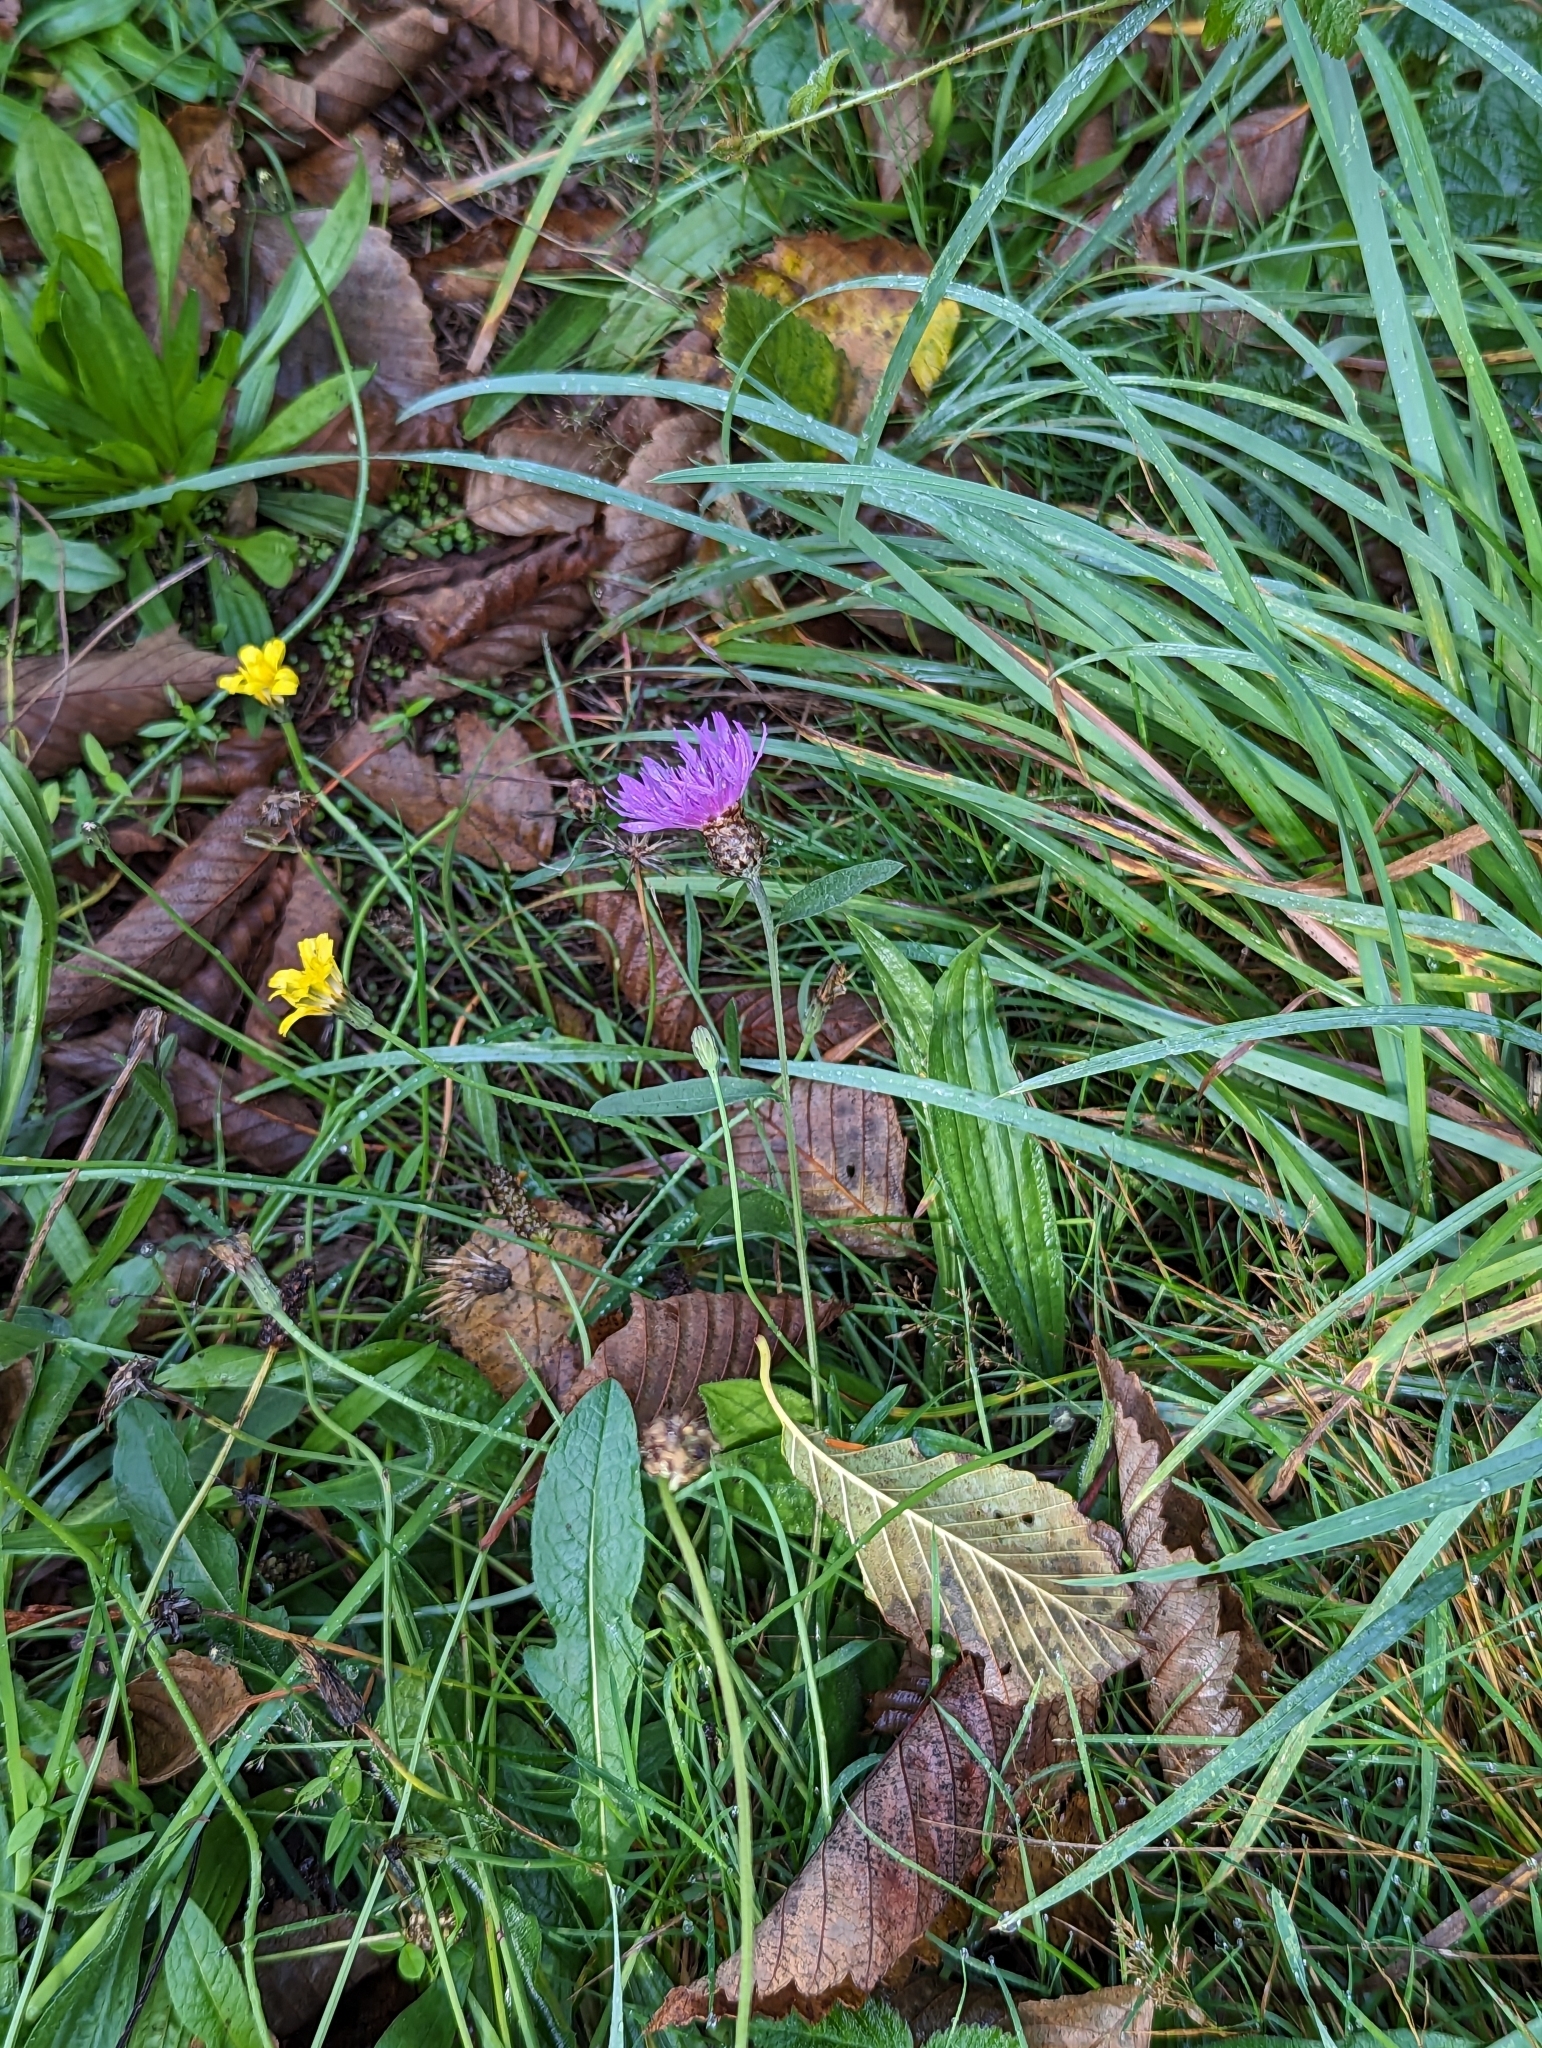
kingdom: Plantae
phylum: Tracheophyta
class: Magnoliopsida
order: Asterales
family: Asteraceae
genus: Centaurea
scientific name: Centaurea gerstlaueri
